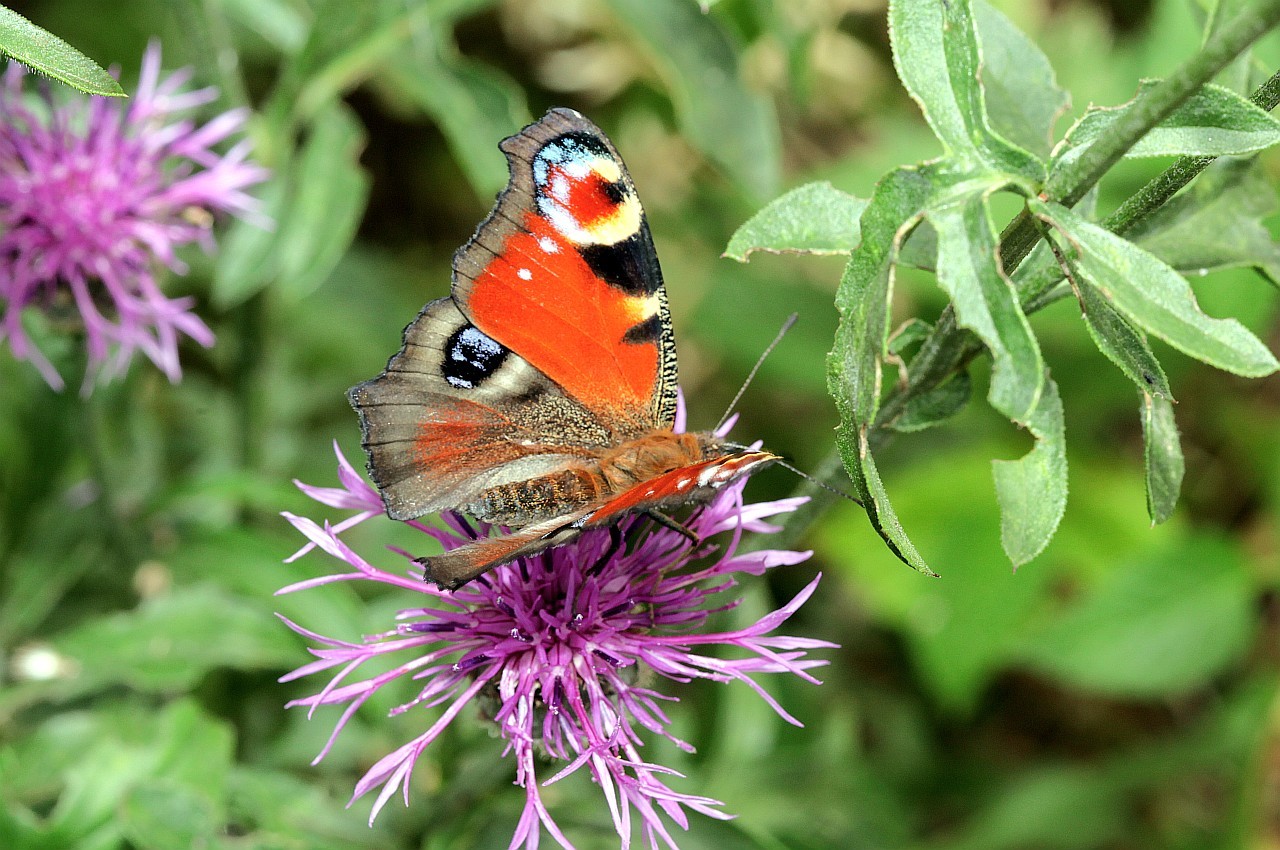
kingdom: Animalia
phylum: Arthropoda
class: Insecta
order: Lepidoptera
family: Nymphalidae
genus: Aglais
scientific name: Aglais io
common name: Peacock
